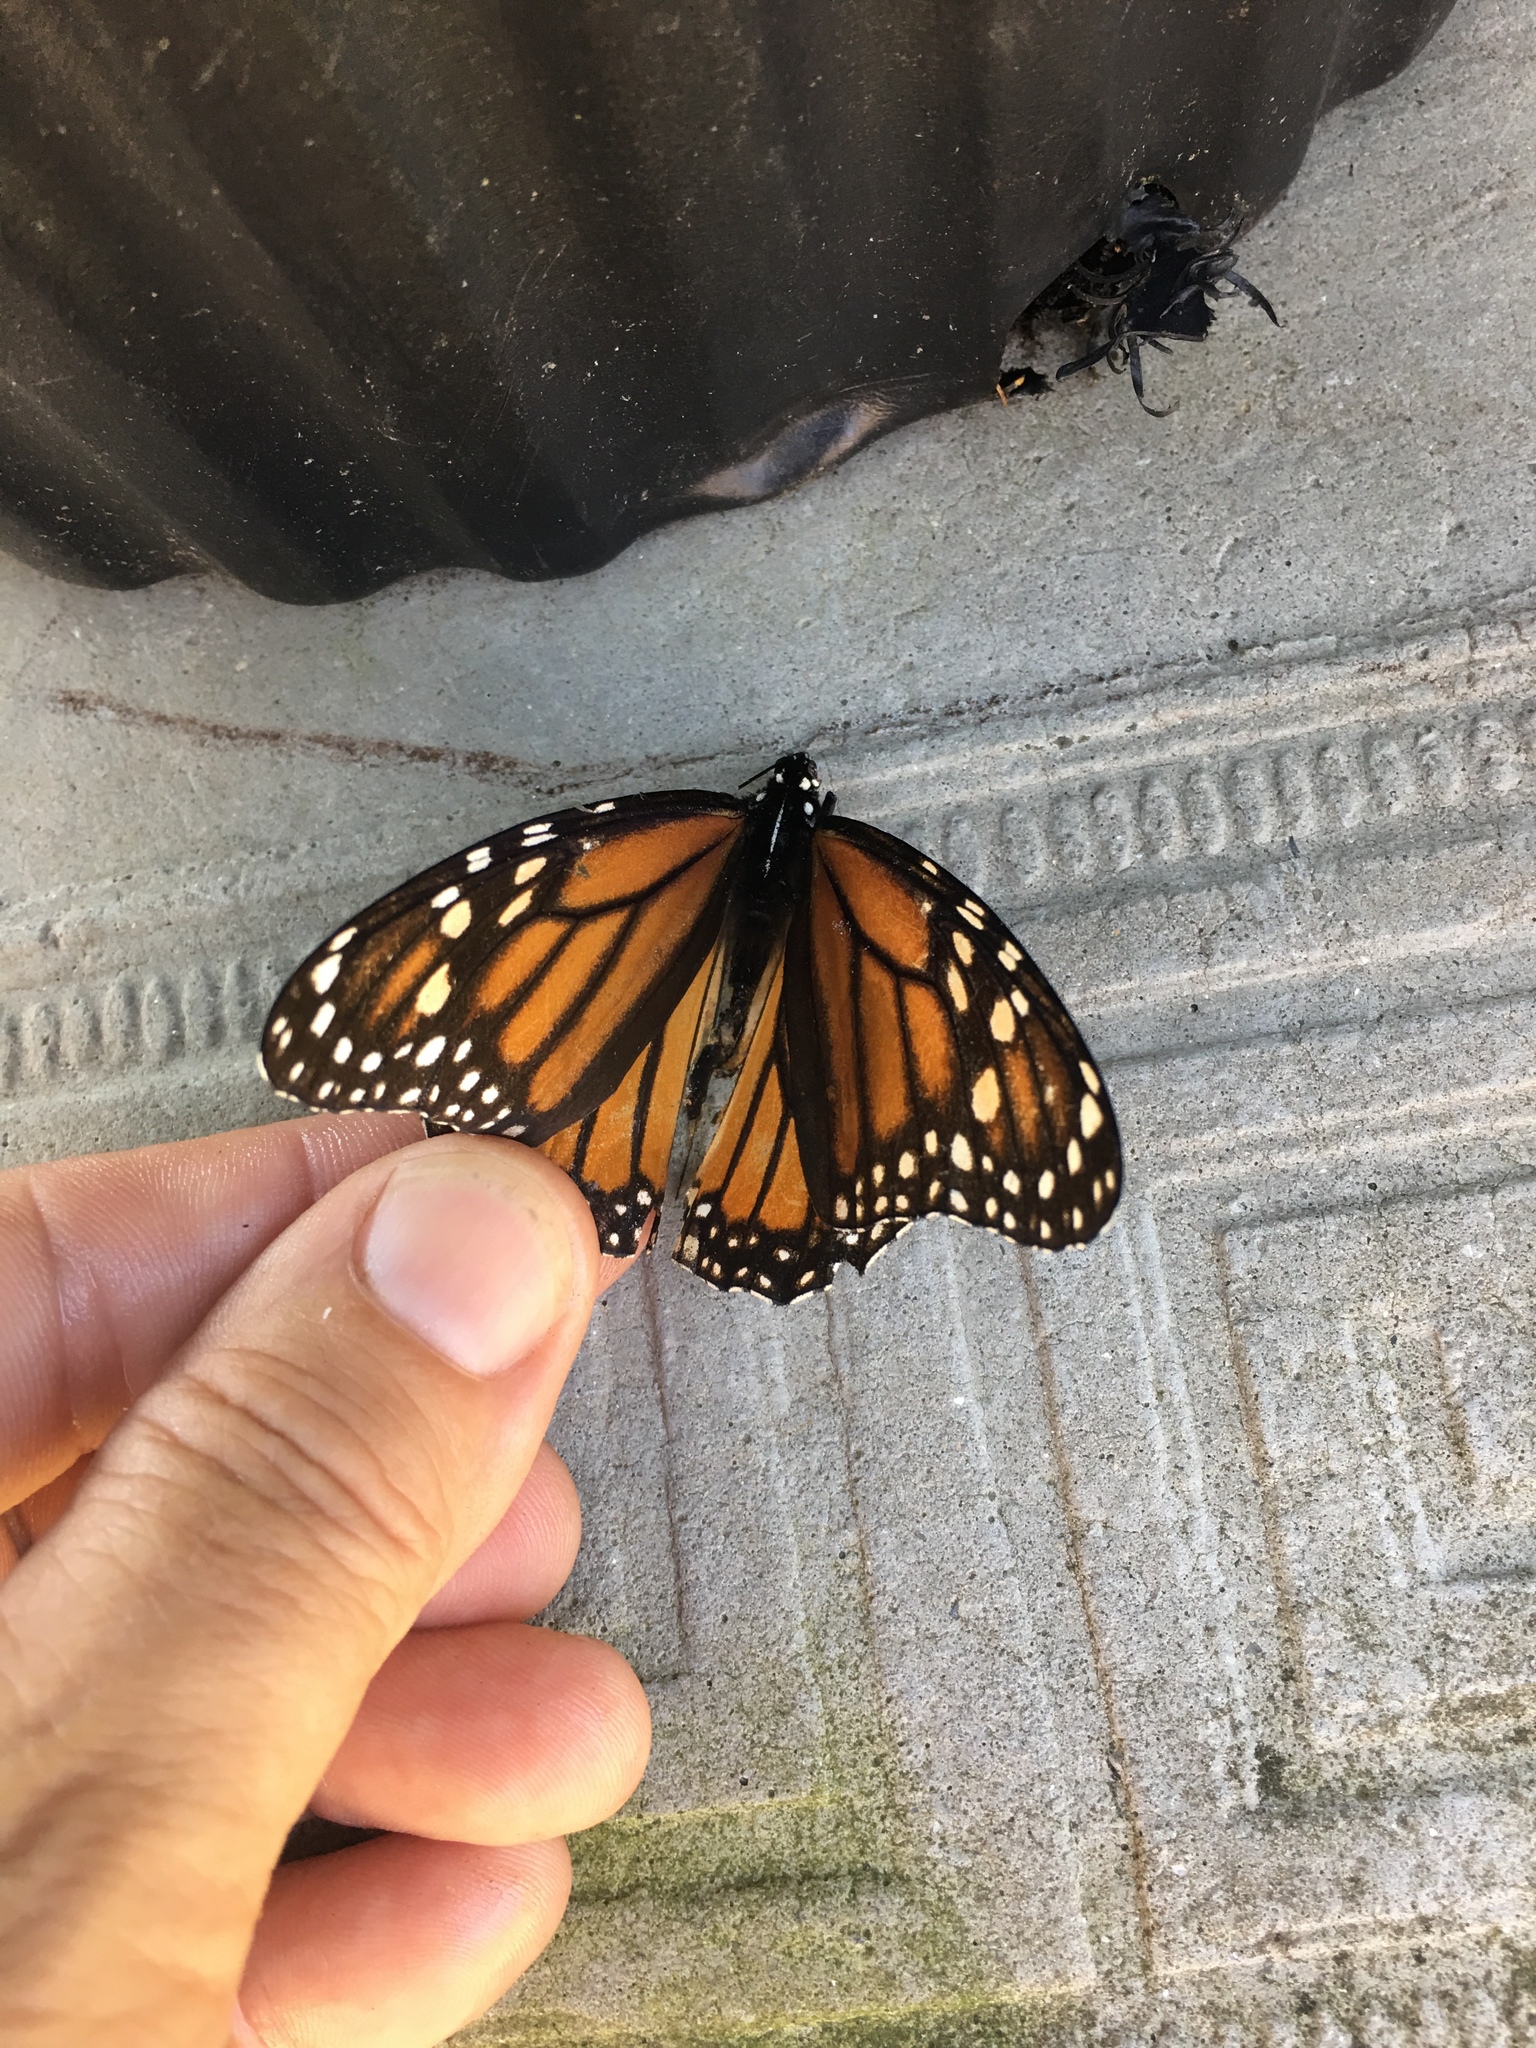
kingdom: Animalia
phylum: Arthropoda
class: Insecta
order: Lepidoptera
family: Nymphalidae
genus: Danaus
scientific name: Danaus plexippus
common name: Monarch
